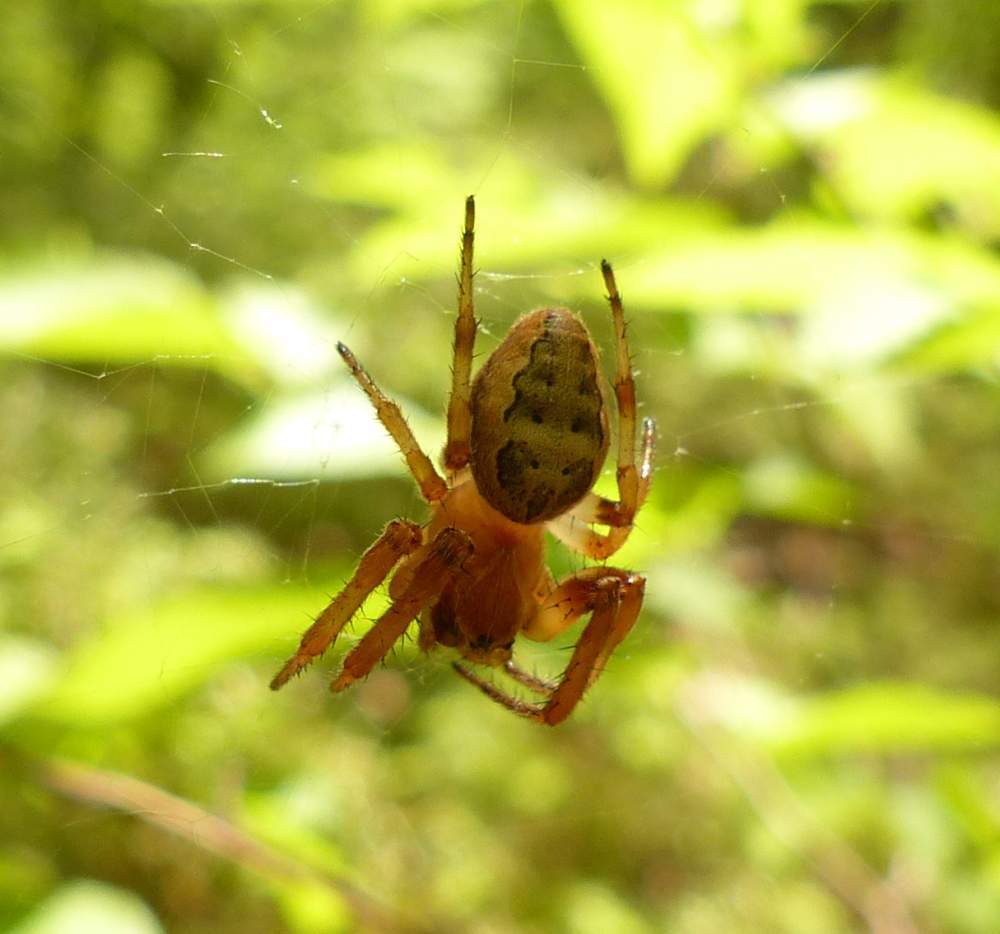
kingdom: Animalia
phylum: Arthropoda
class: Arachnida
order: Araneae
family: Araneidae
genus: Larinioides
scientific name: Larinioides cornutus
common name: Furrow orbweaver
